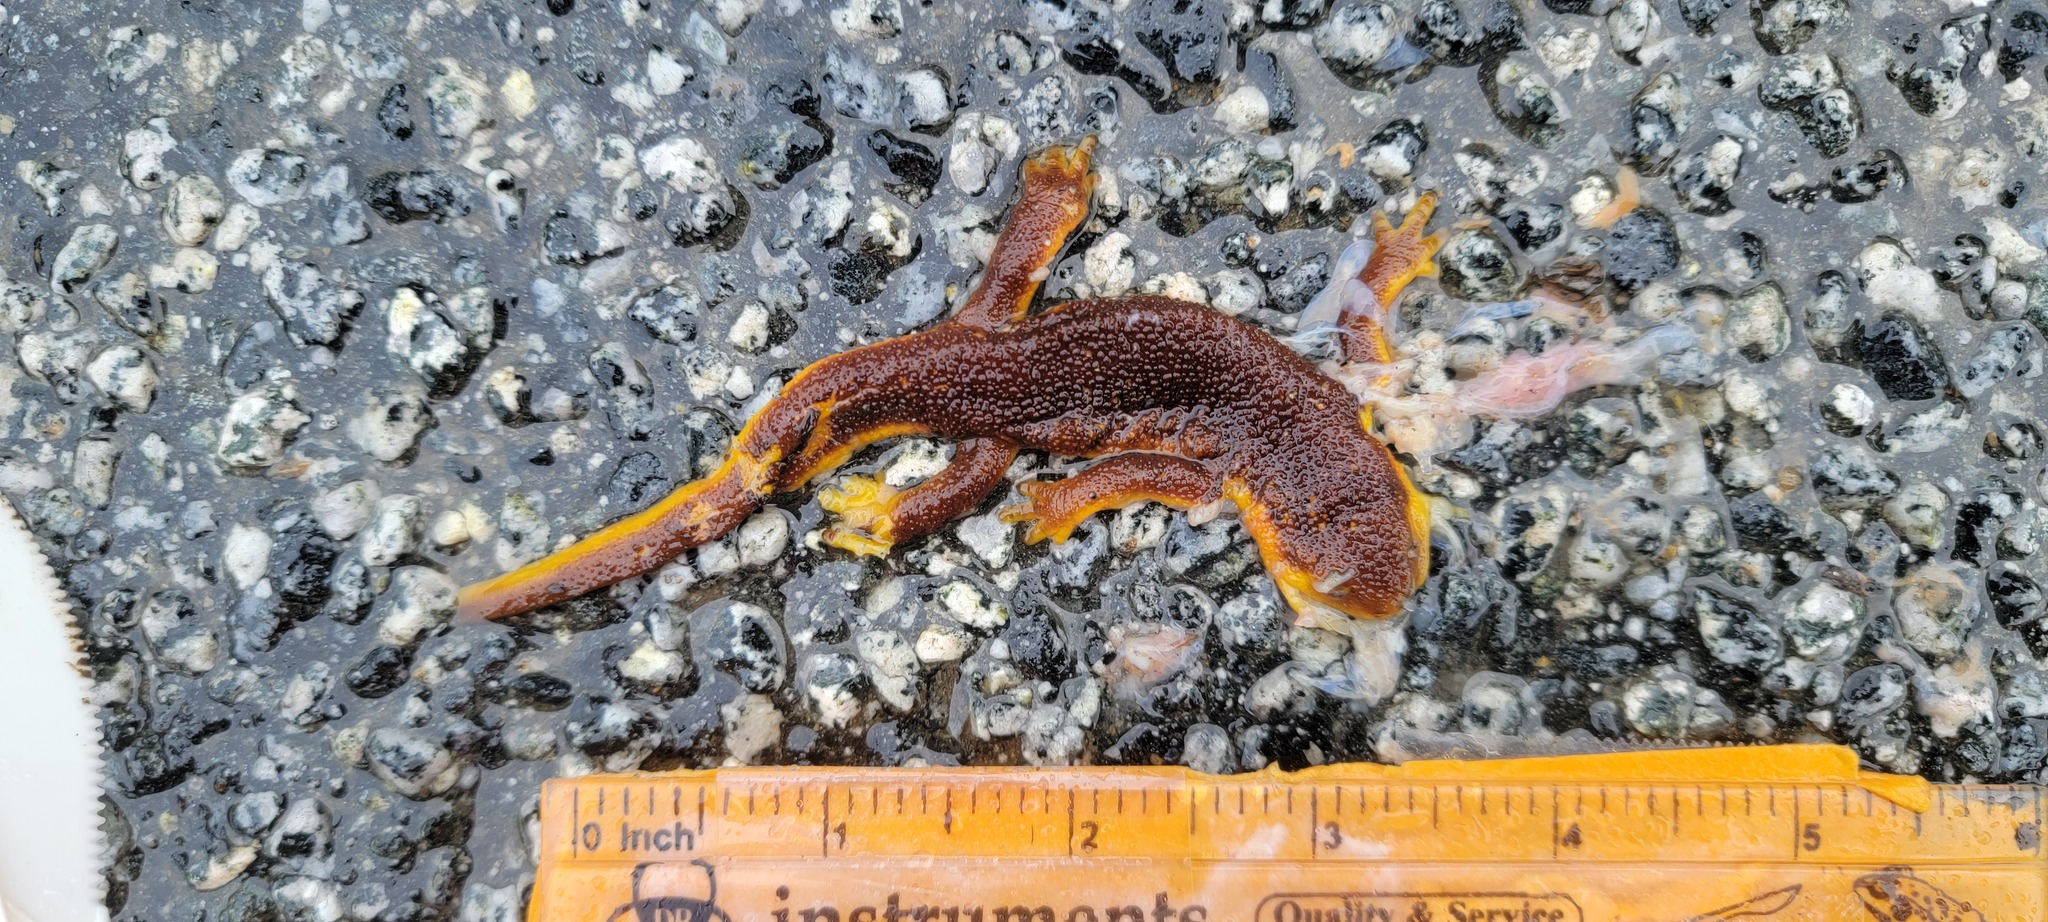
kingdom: Animalia
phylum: Chordata
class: Amphibia
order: Caudata
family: Salamandridae
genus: Taricha
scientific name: Taricha
